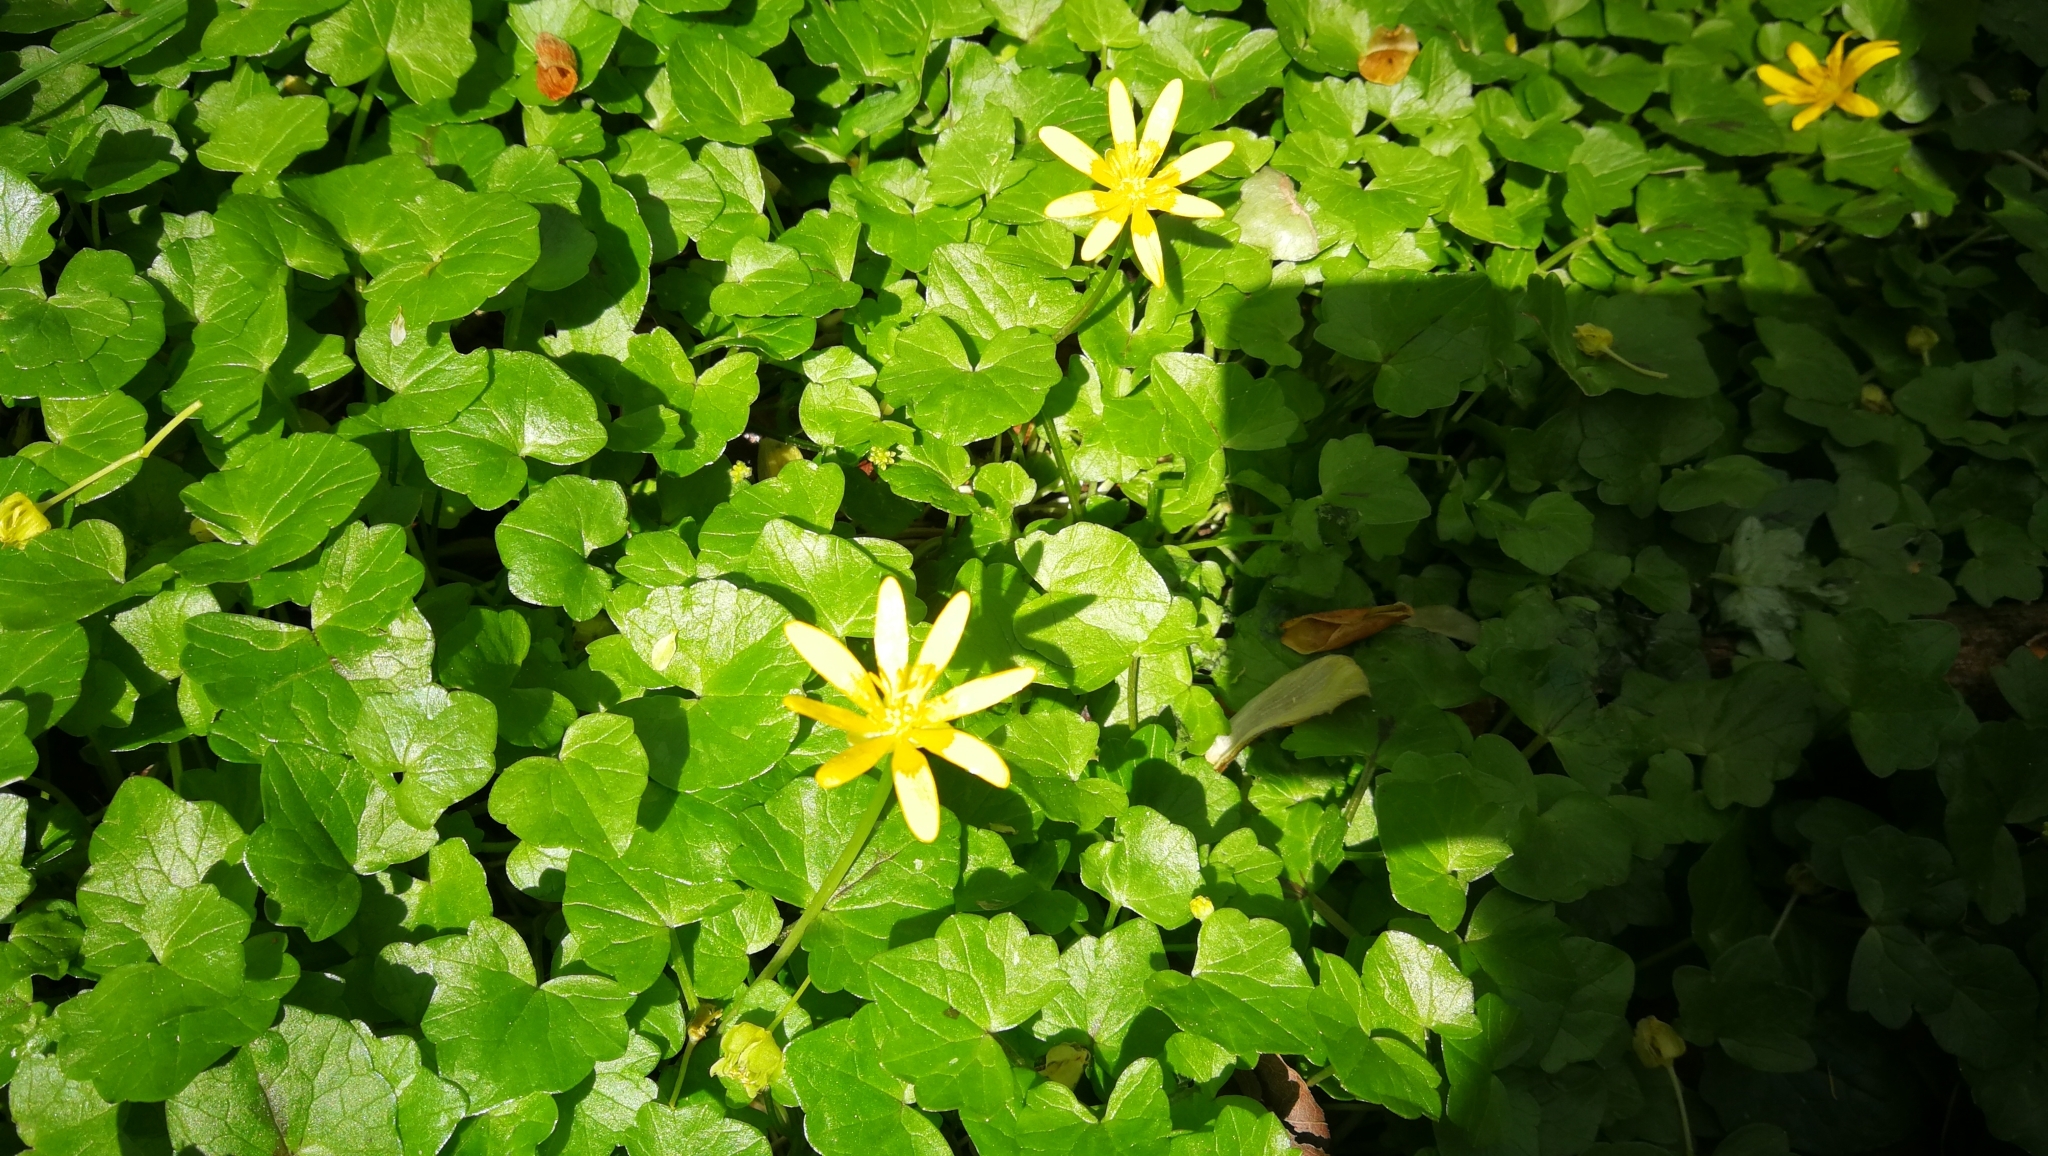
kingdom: Plantae
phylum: Tracheophyta
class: Magnoliopsida
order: Ranunculales
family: Ranunculaceae
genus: Ficaria
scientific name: Ficaria verna
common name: Lesser celandine
